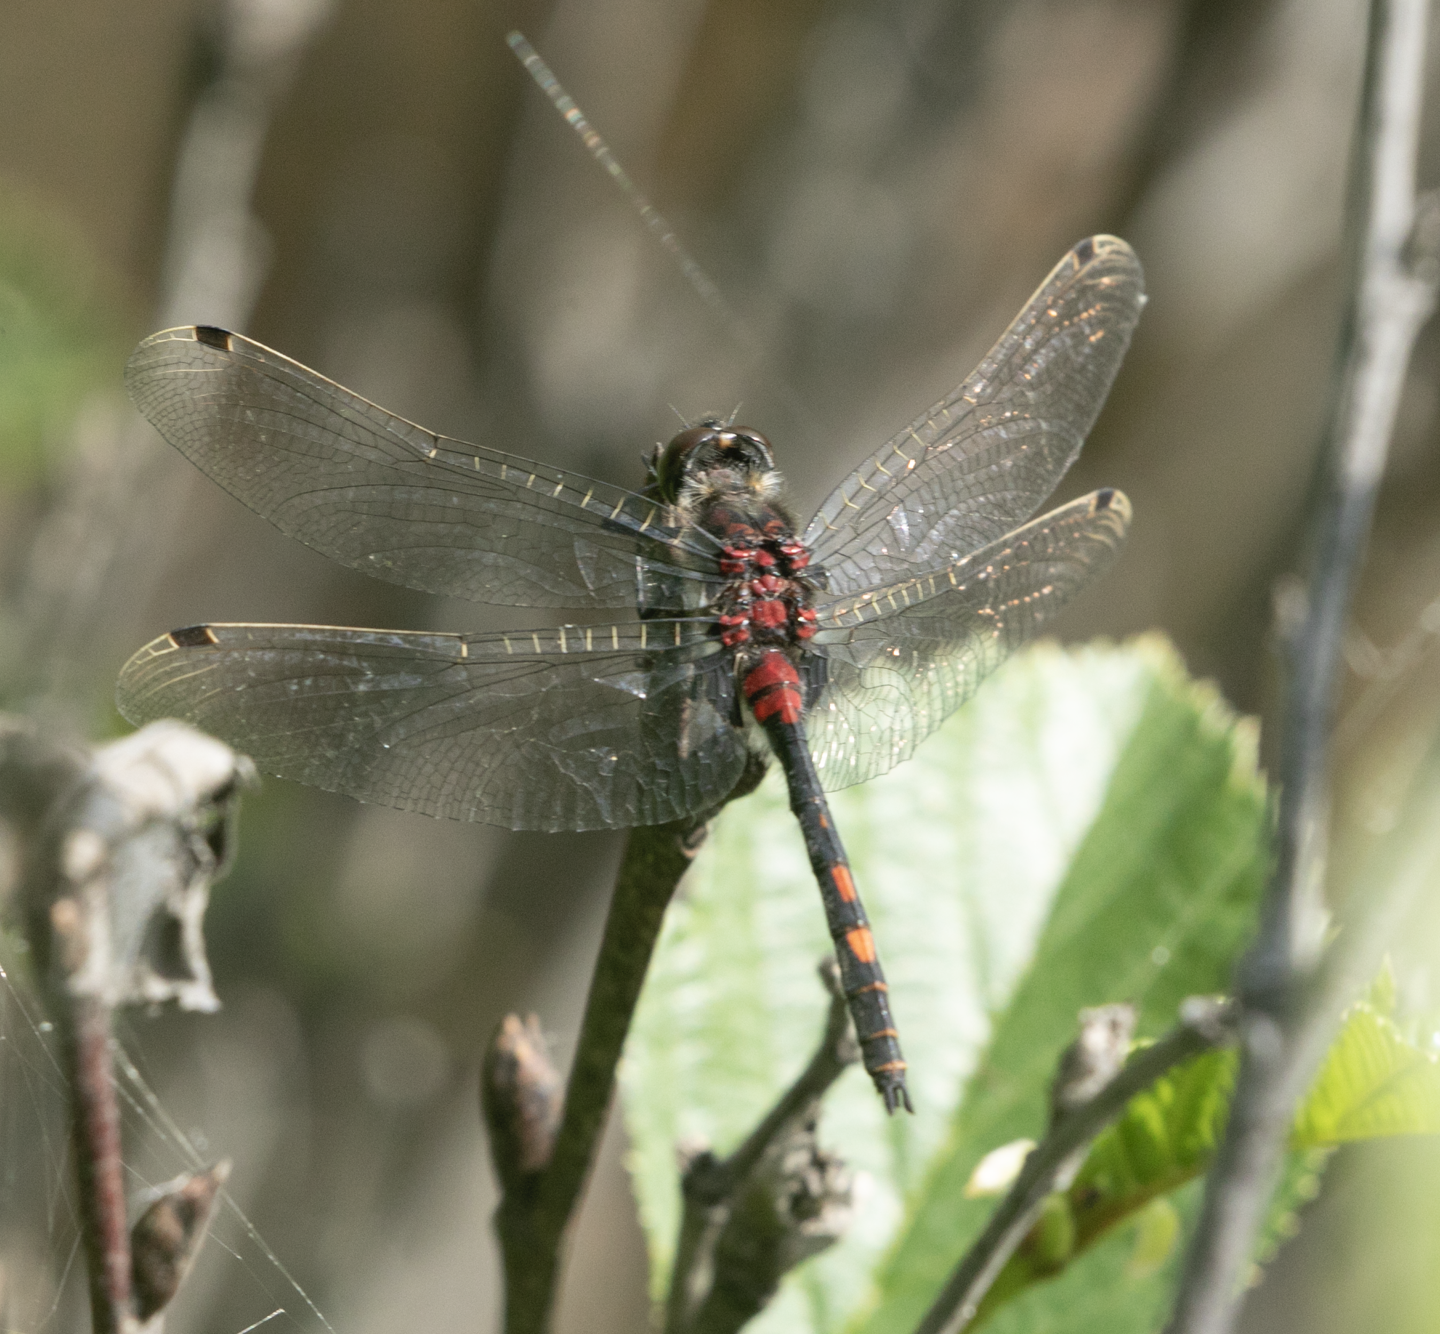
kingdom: Animalia
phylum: Arthropoda
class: Insecta
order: Odonata
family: Libellulidae
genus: Leucorrhinia
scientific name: Leucorrhinia dubia
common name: White-faced darter
